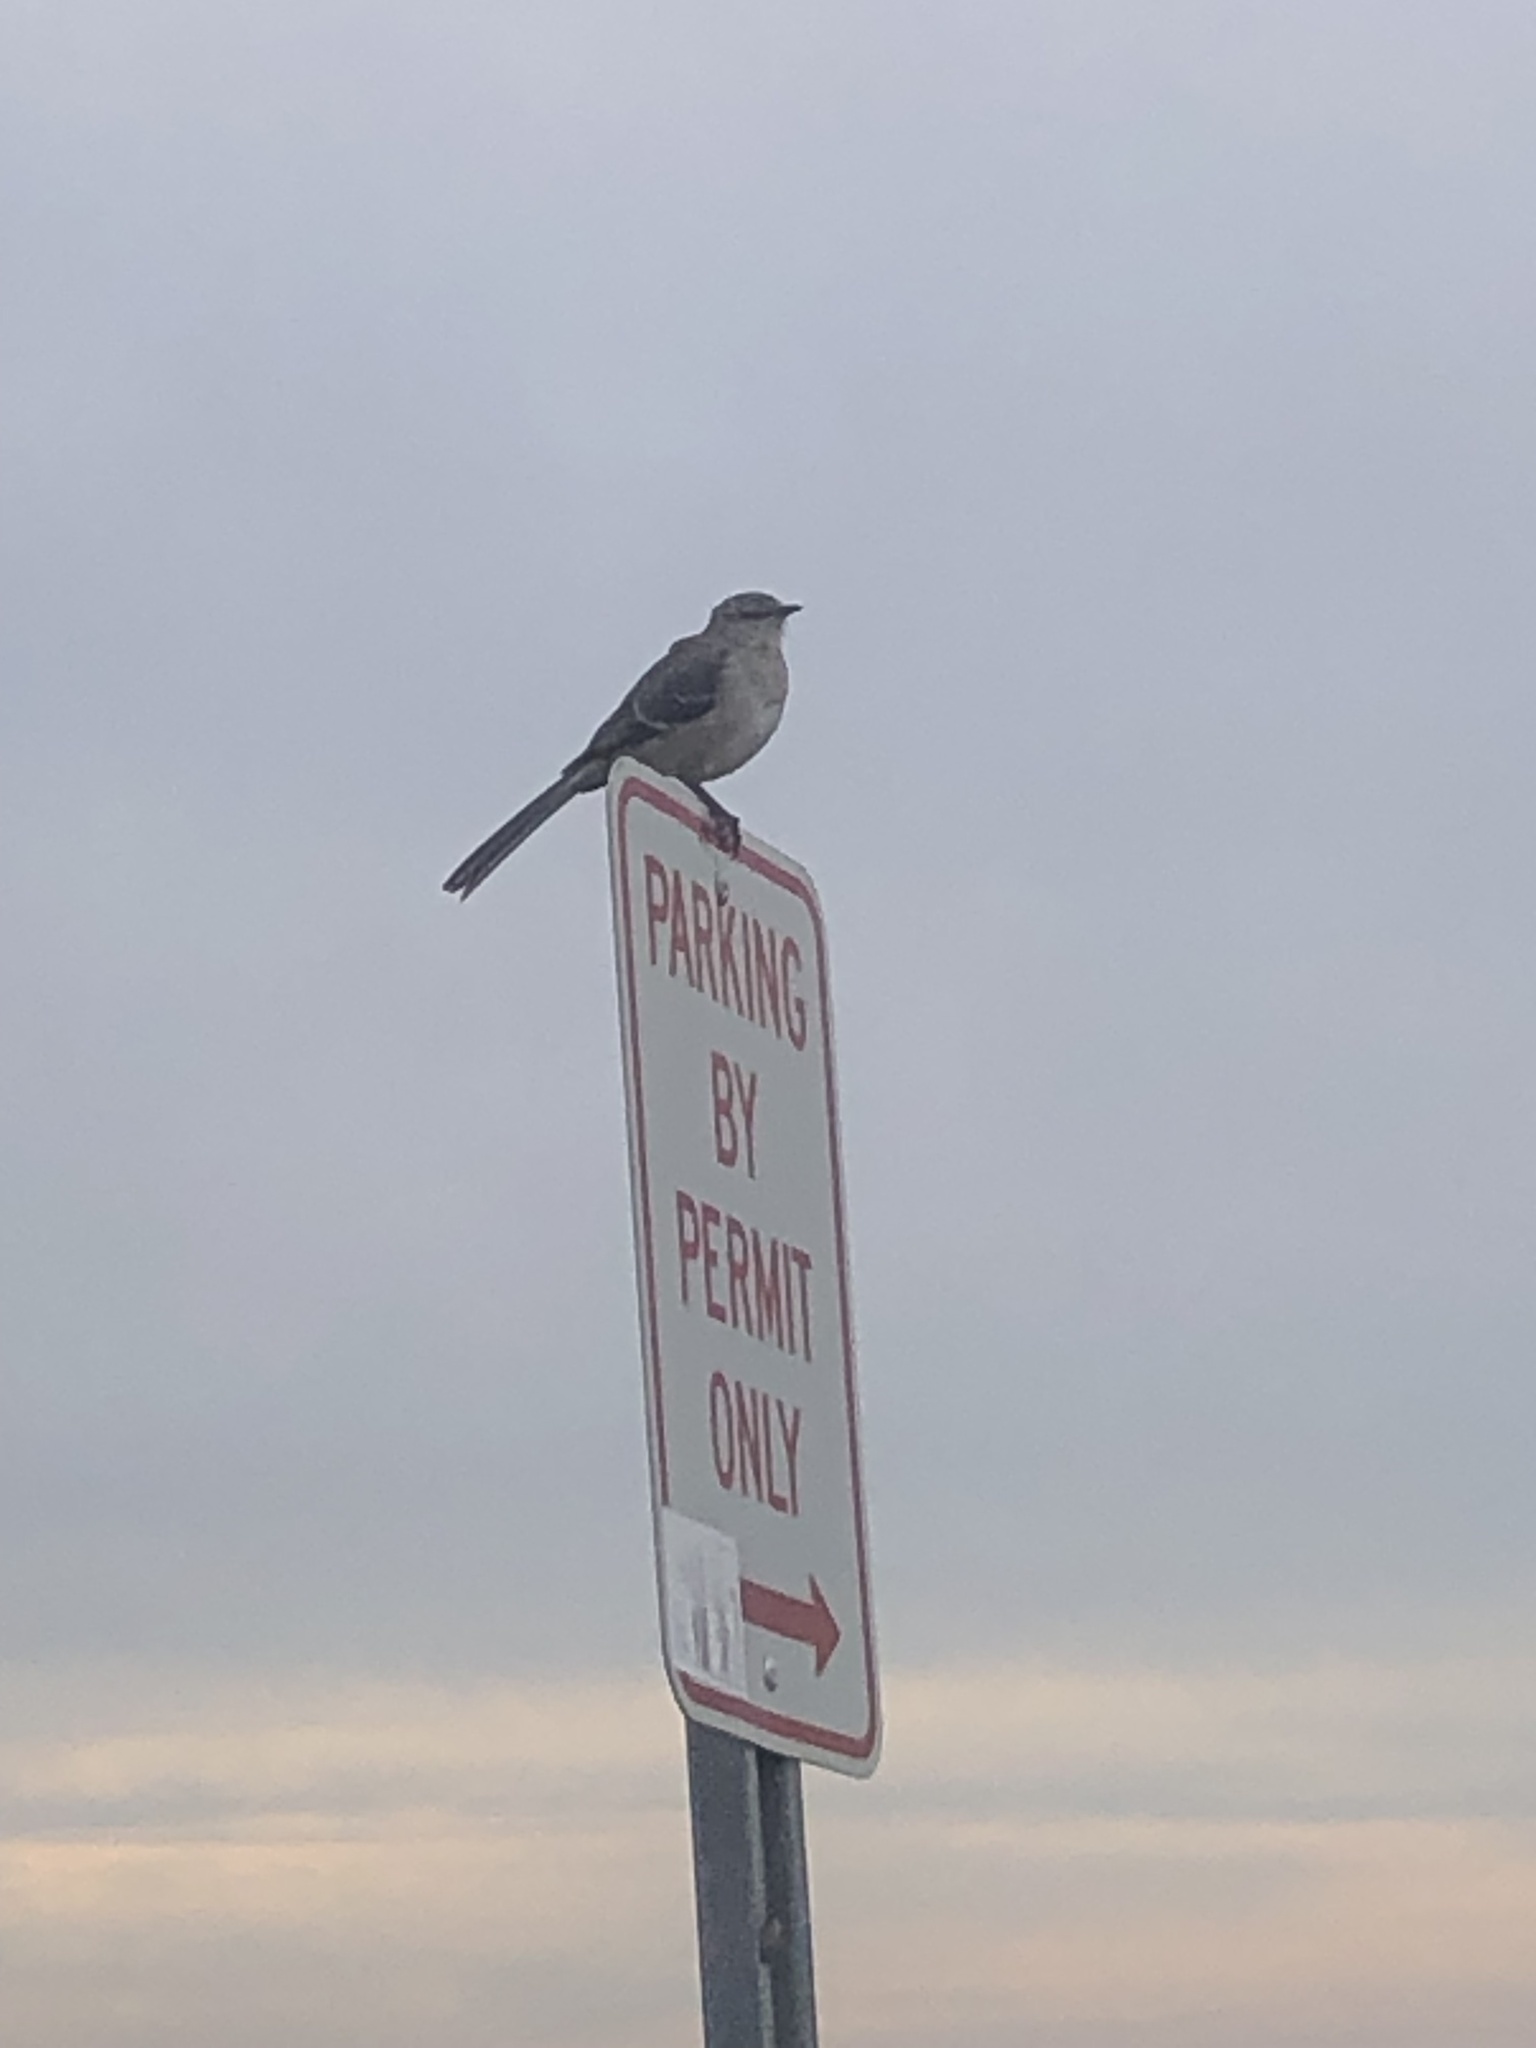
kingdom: Animalia
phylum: Chordata
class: Aves
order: Passeriformes
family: Mimidae
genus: Mimus
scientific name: Mimus polyglottos
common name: Northern mockingbird
